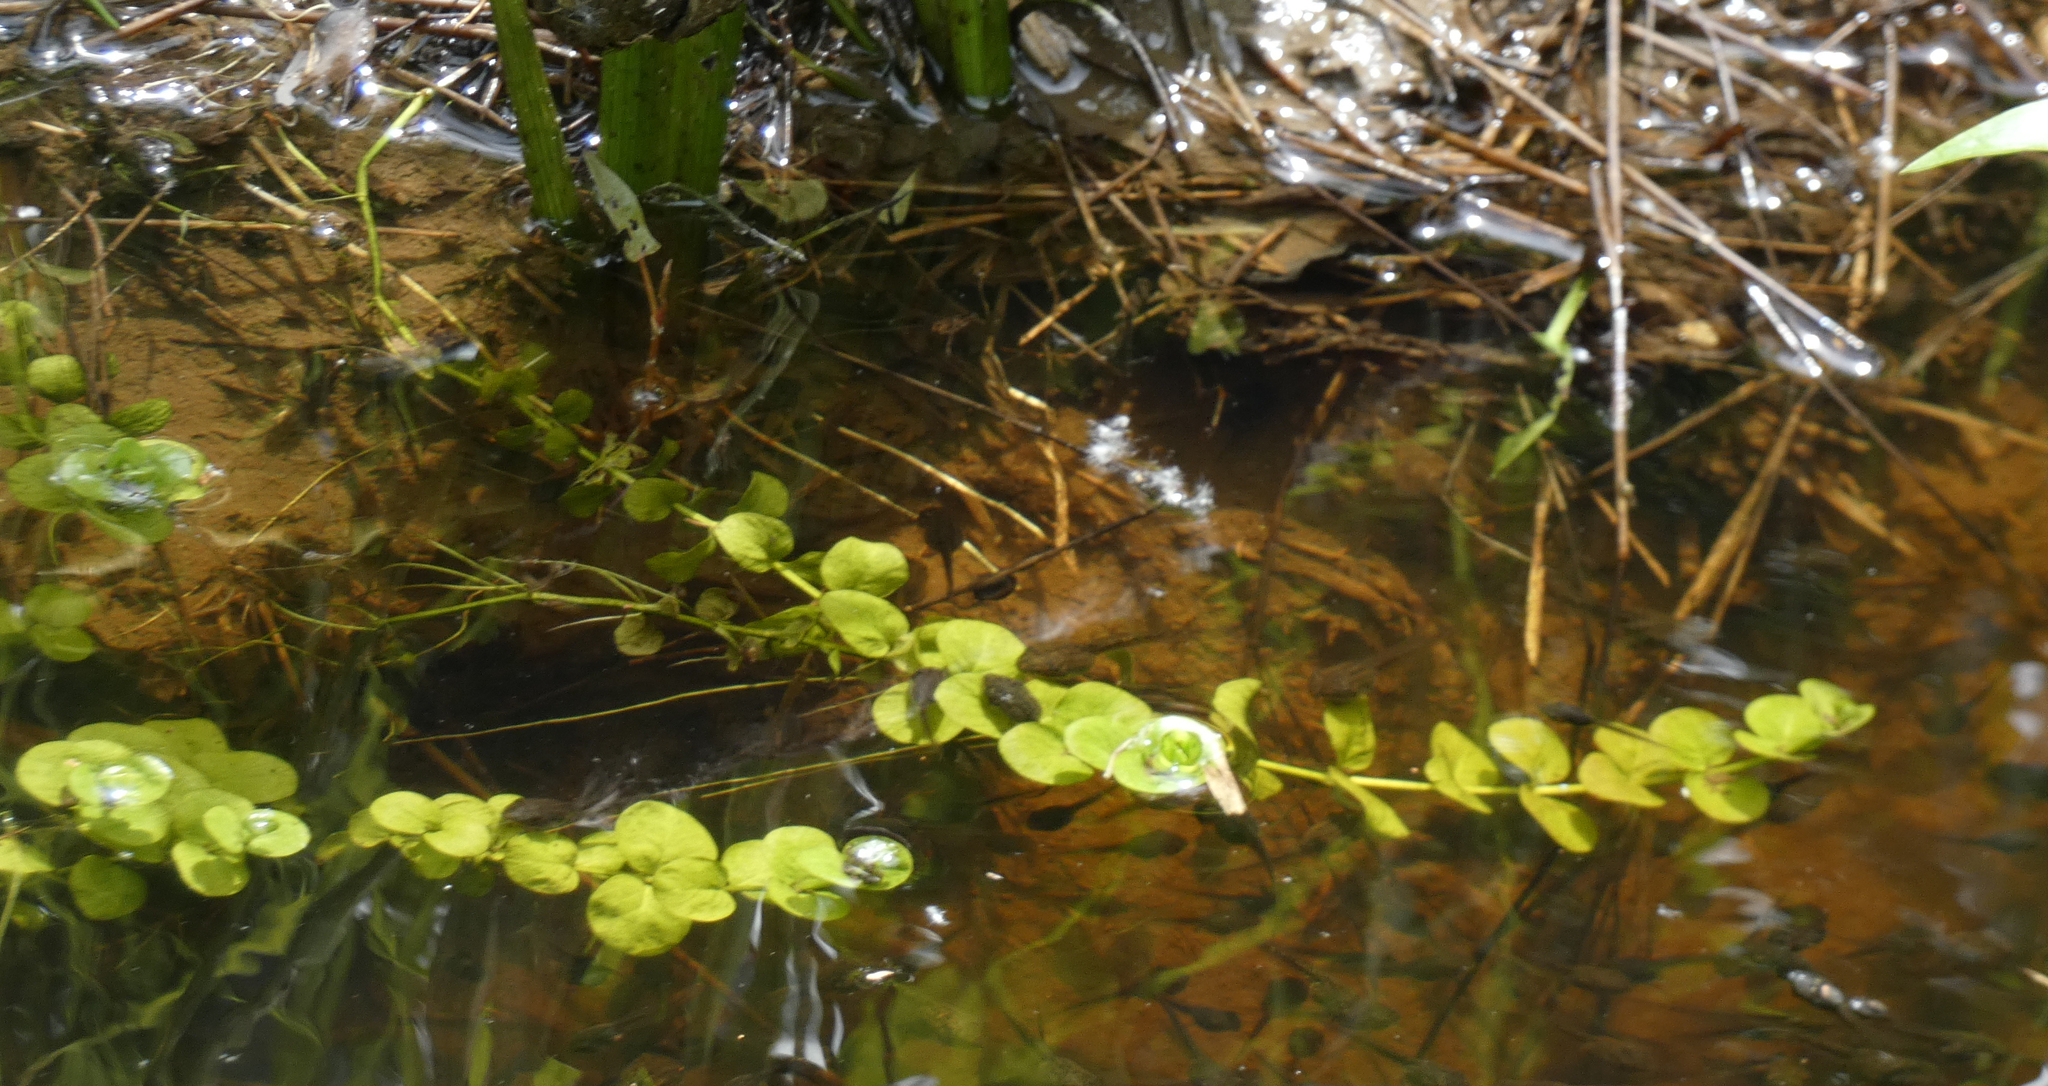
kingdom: Plantae
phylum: Tracheophyta
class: Magnoliopsida
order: Ericales
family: Primulaceae
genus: Lysimachia
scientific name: Lysimachia nummularia
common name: Moneywort
